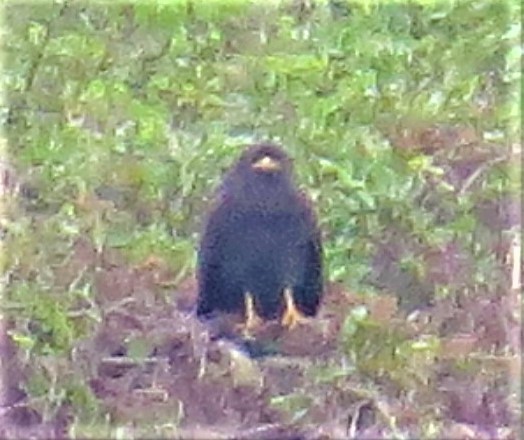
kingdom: Animalia
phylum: Chordata
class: Aves
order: Accipitriformes
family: Accipitridae
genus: Buteogallus
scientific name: Buteogallus anthracinus
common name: Common black hawk
